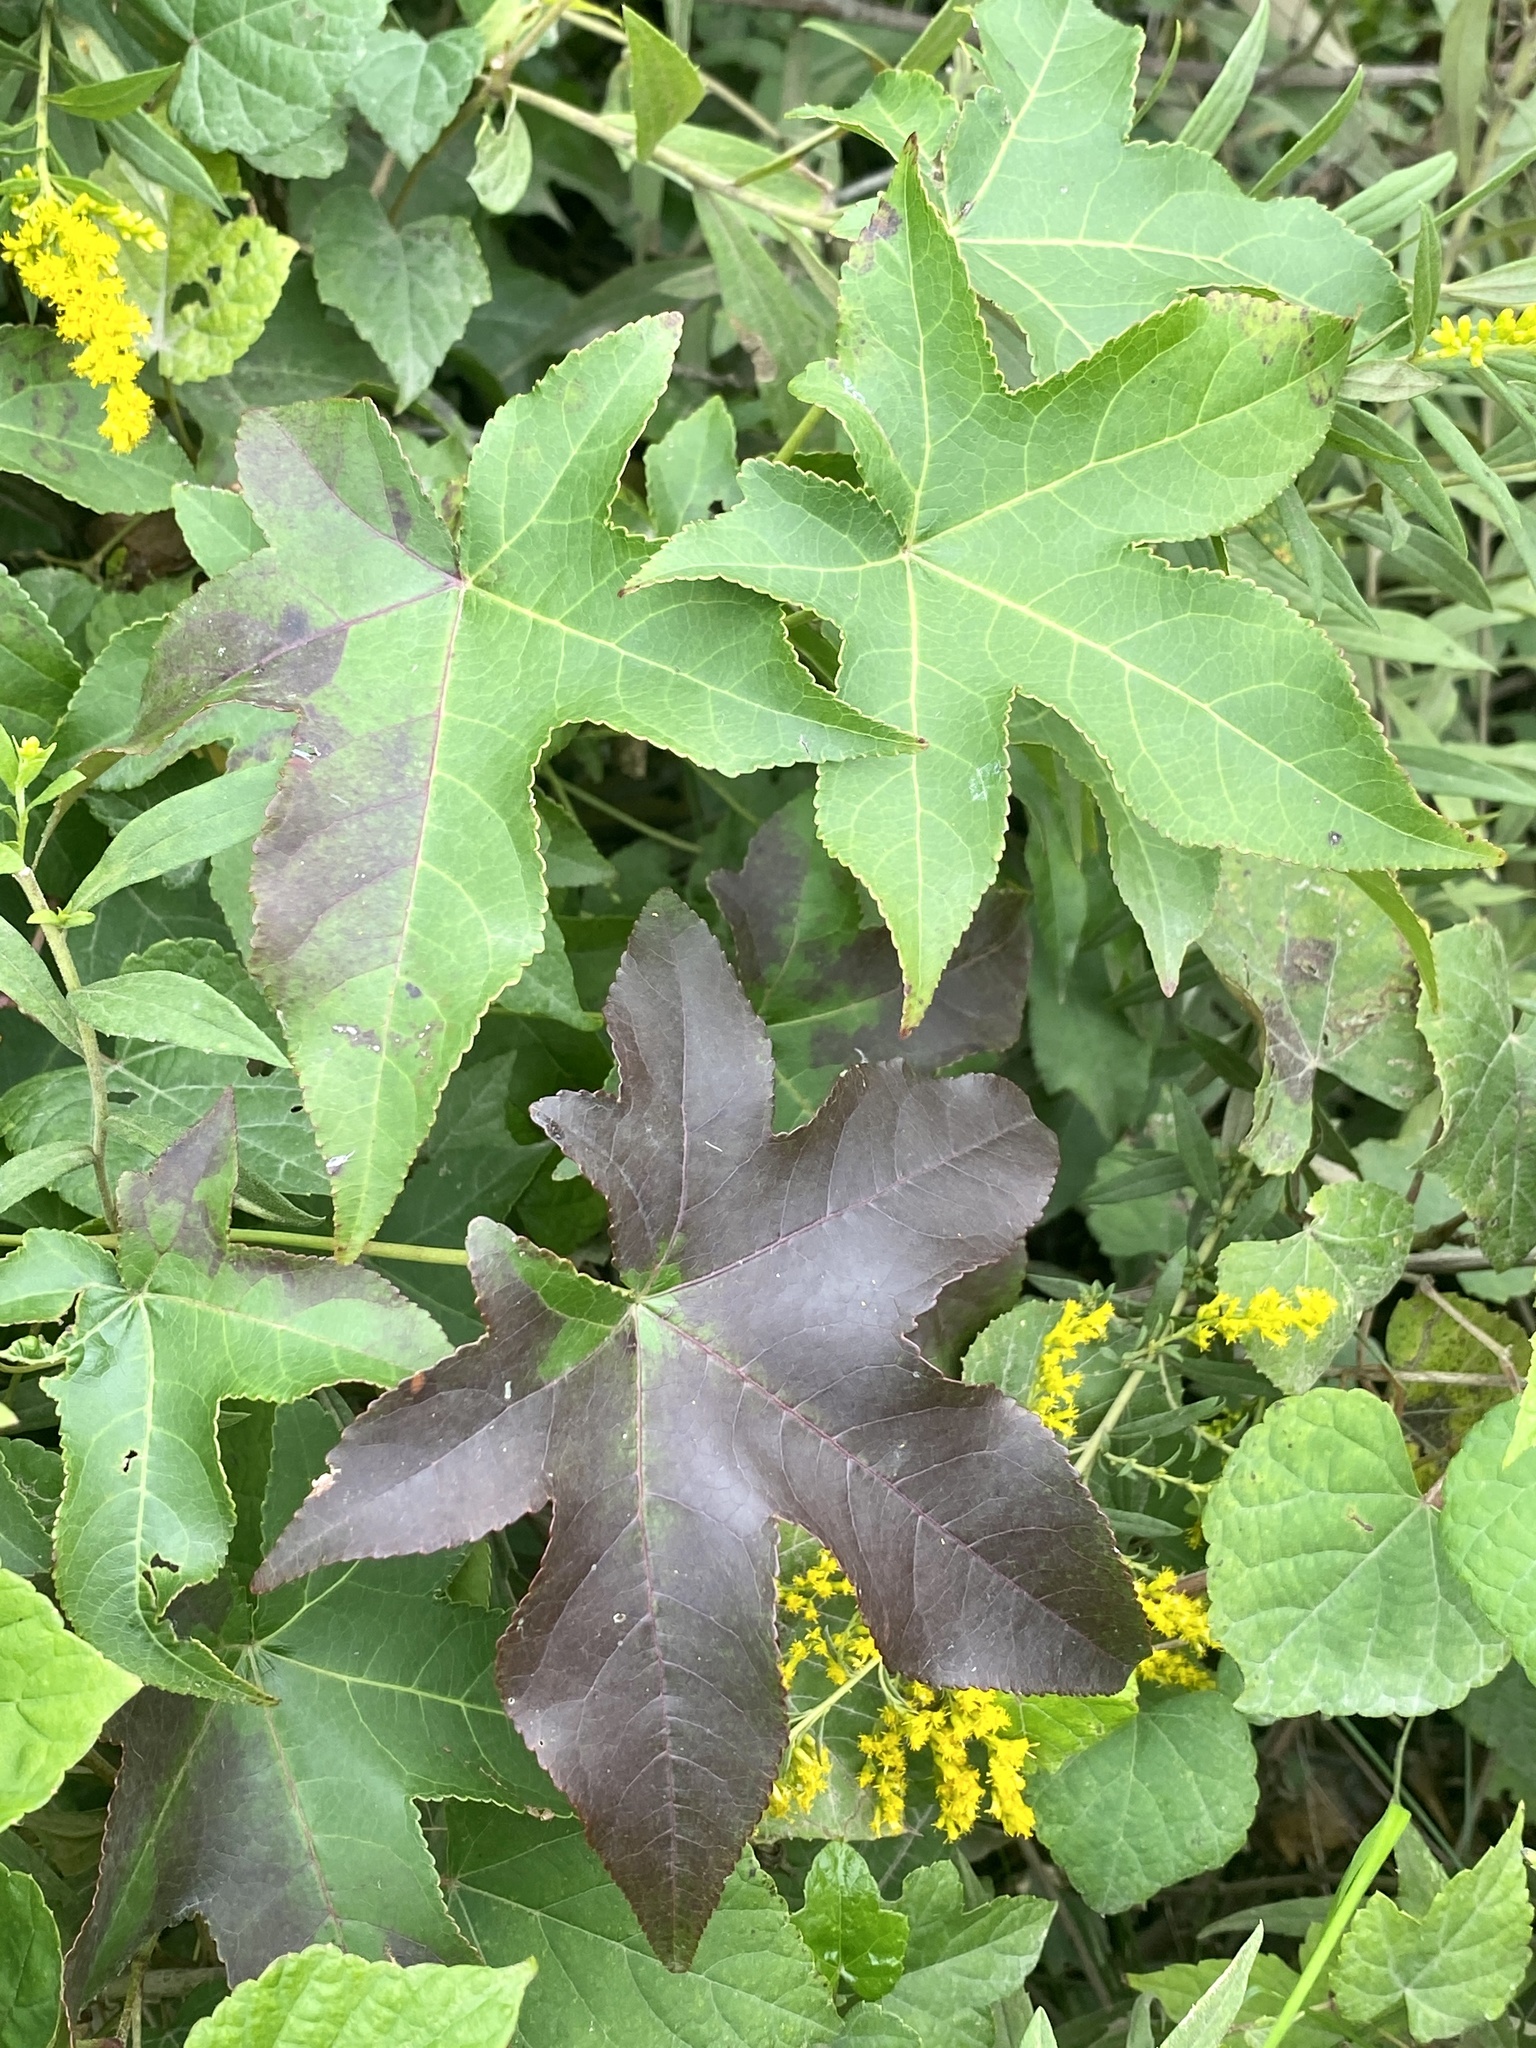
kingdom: Plantae
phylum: Tracheophyta
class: Magnoliopsida
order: Saxifragales
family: Altingiaceae
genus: Liquidambar
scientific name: Liquidambar styraciflua
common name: Sweet gum
